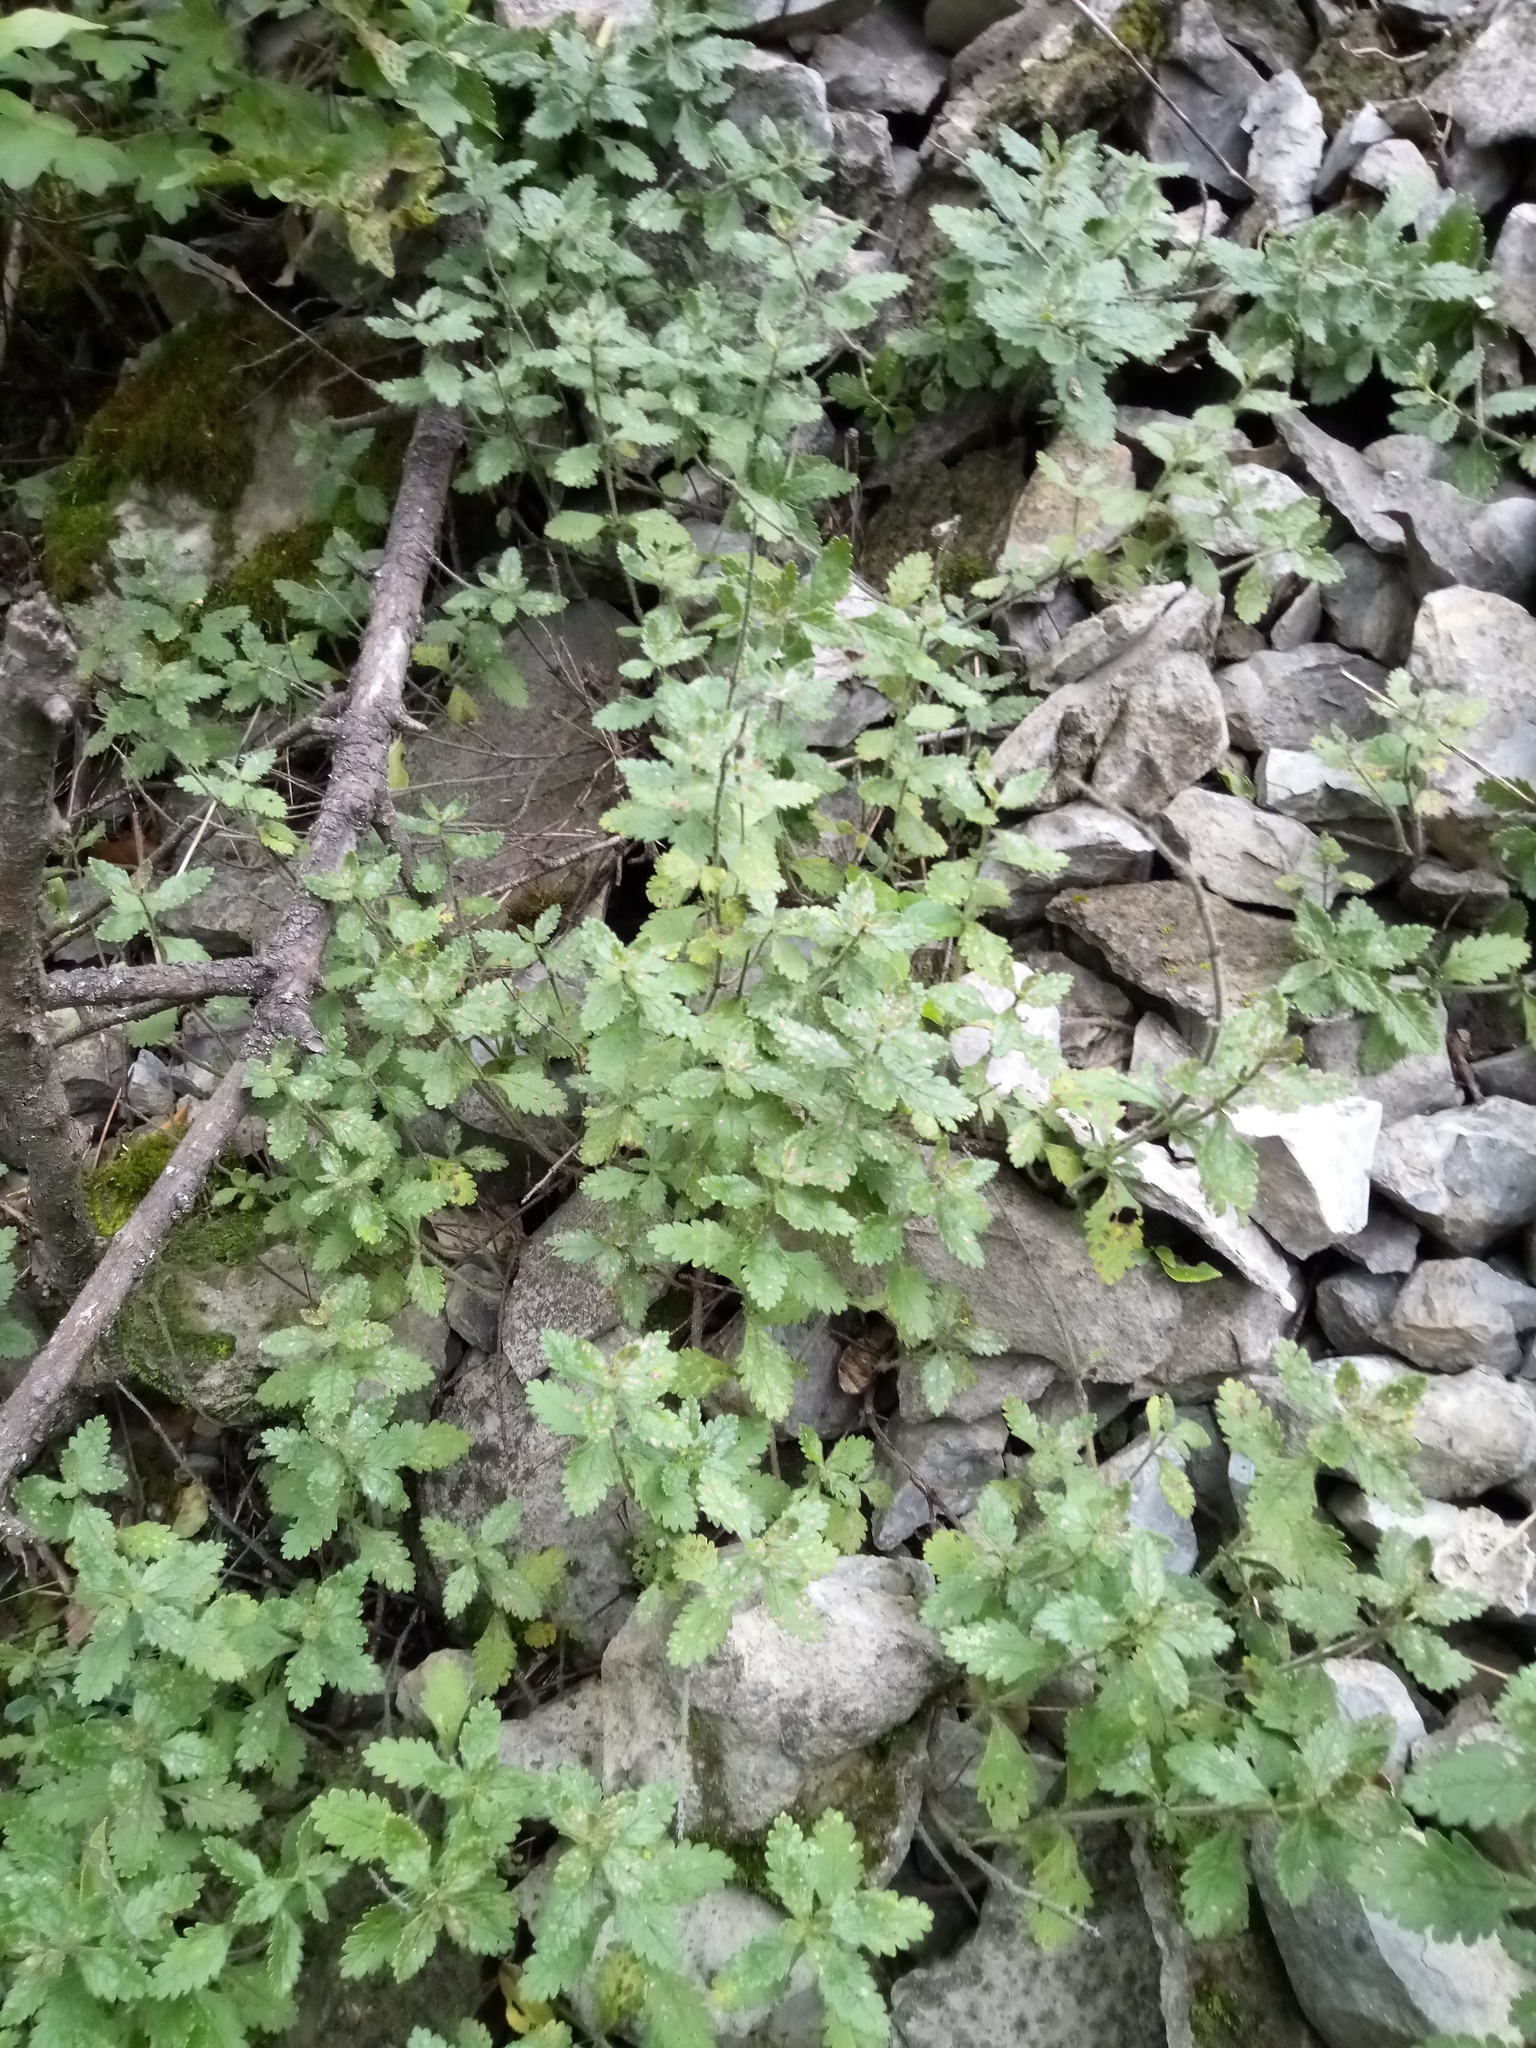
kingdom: Plantae
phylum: Tracheophyta
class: Magnoliopsida
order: Lamiales
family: Lamiaceae
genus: Teucrium
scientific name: Teucrium chamaedrys
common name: Wall germander
